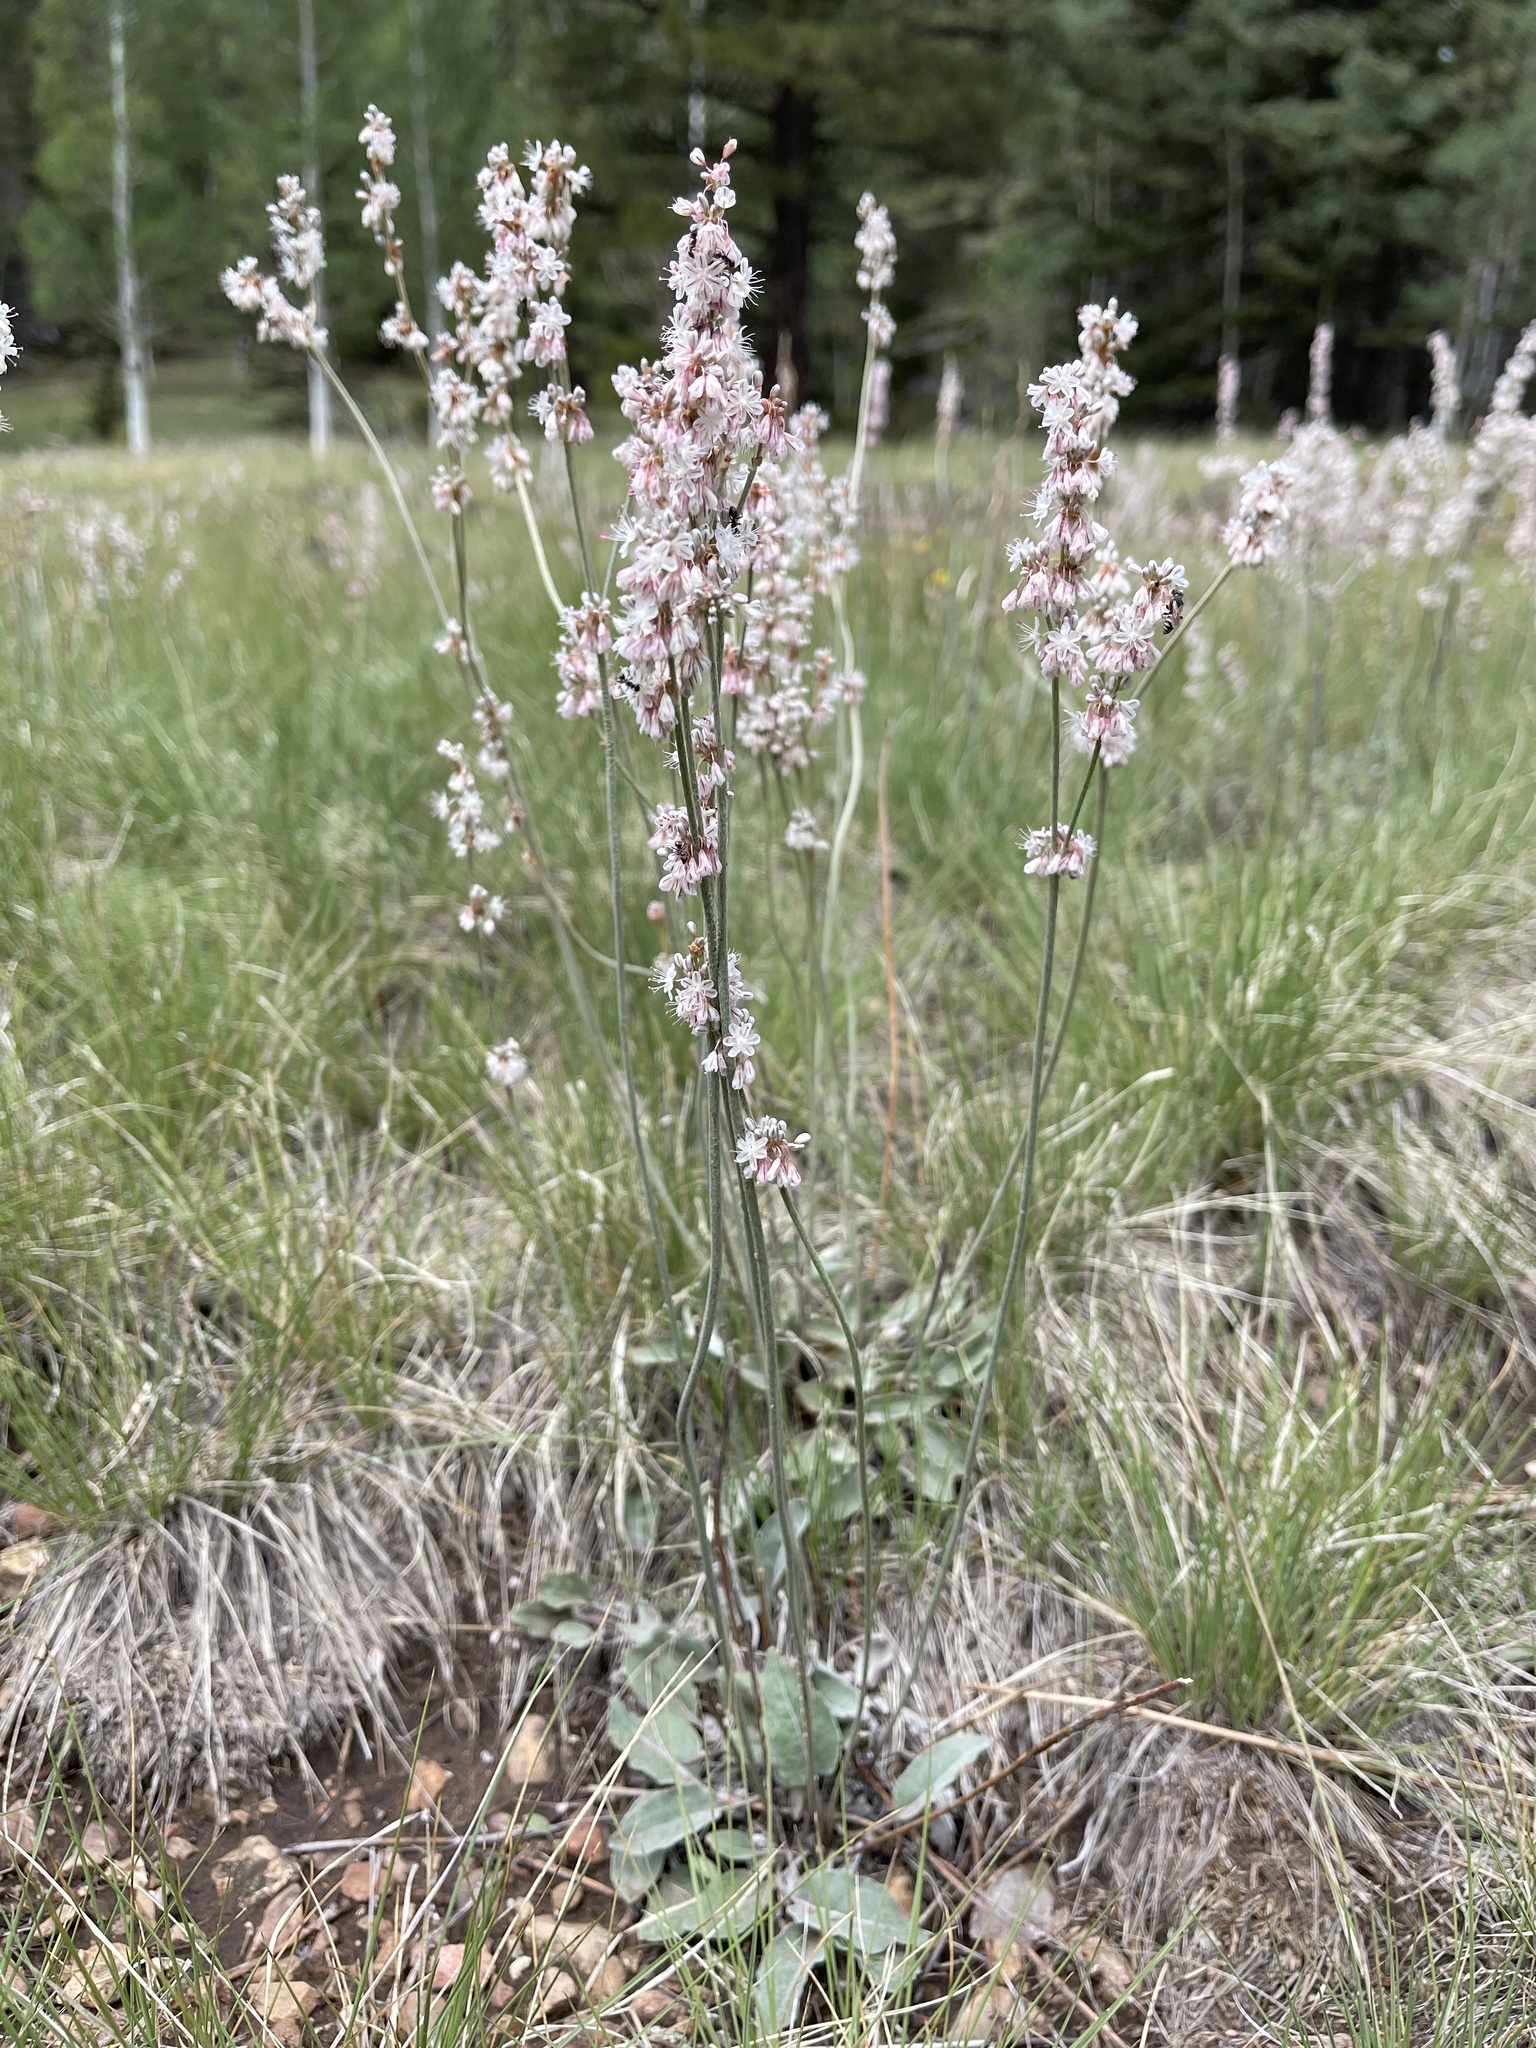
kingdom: Plantae
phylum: Tracheophyta
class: Magnoliopsida
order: Caryophyllales
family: Polygonaceae
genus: Eriogonum
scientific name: Eriogonum racemosum
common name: Redroot wild buckwheat
